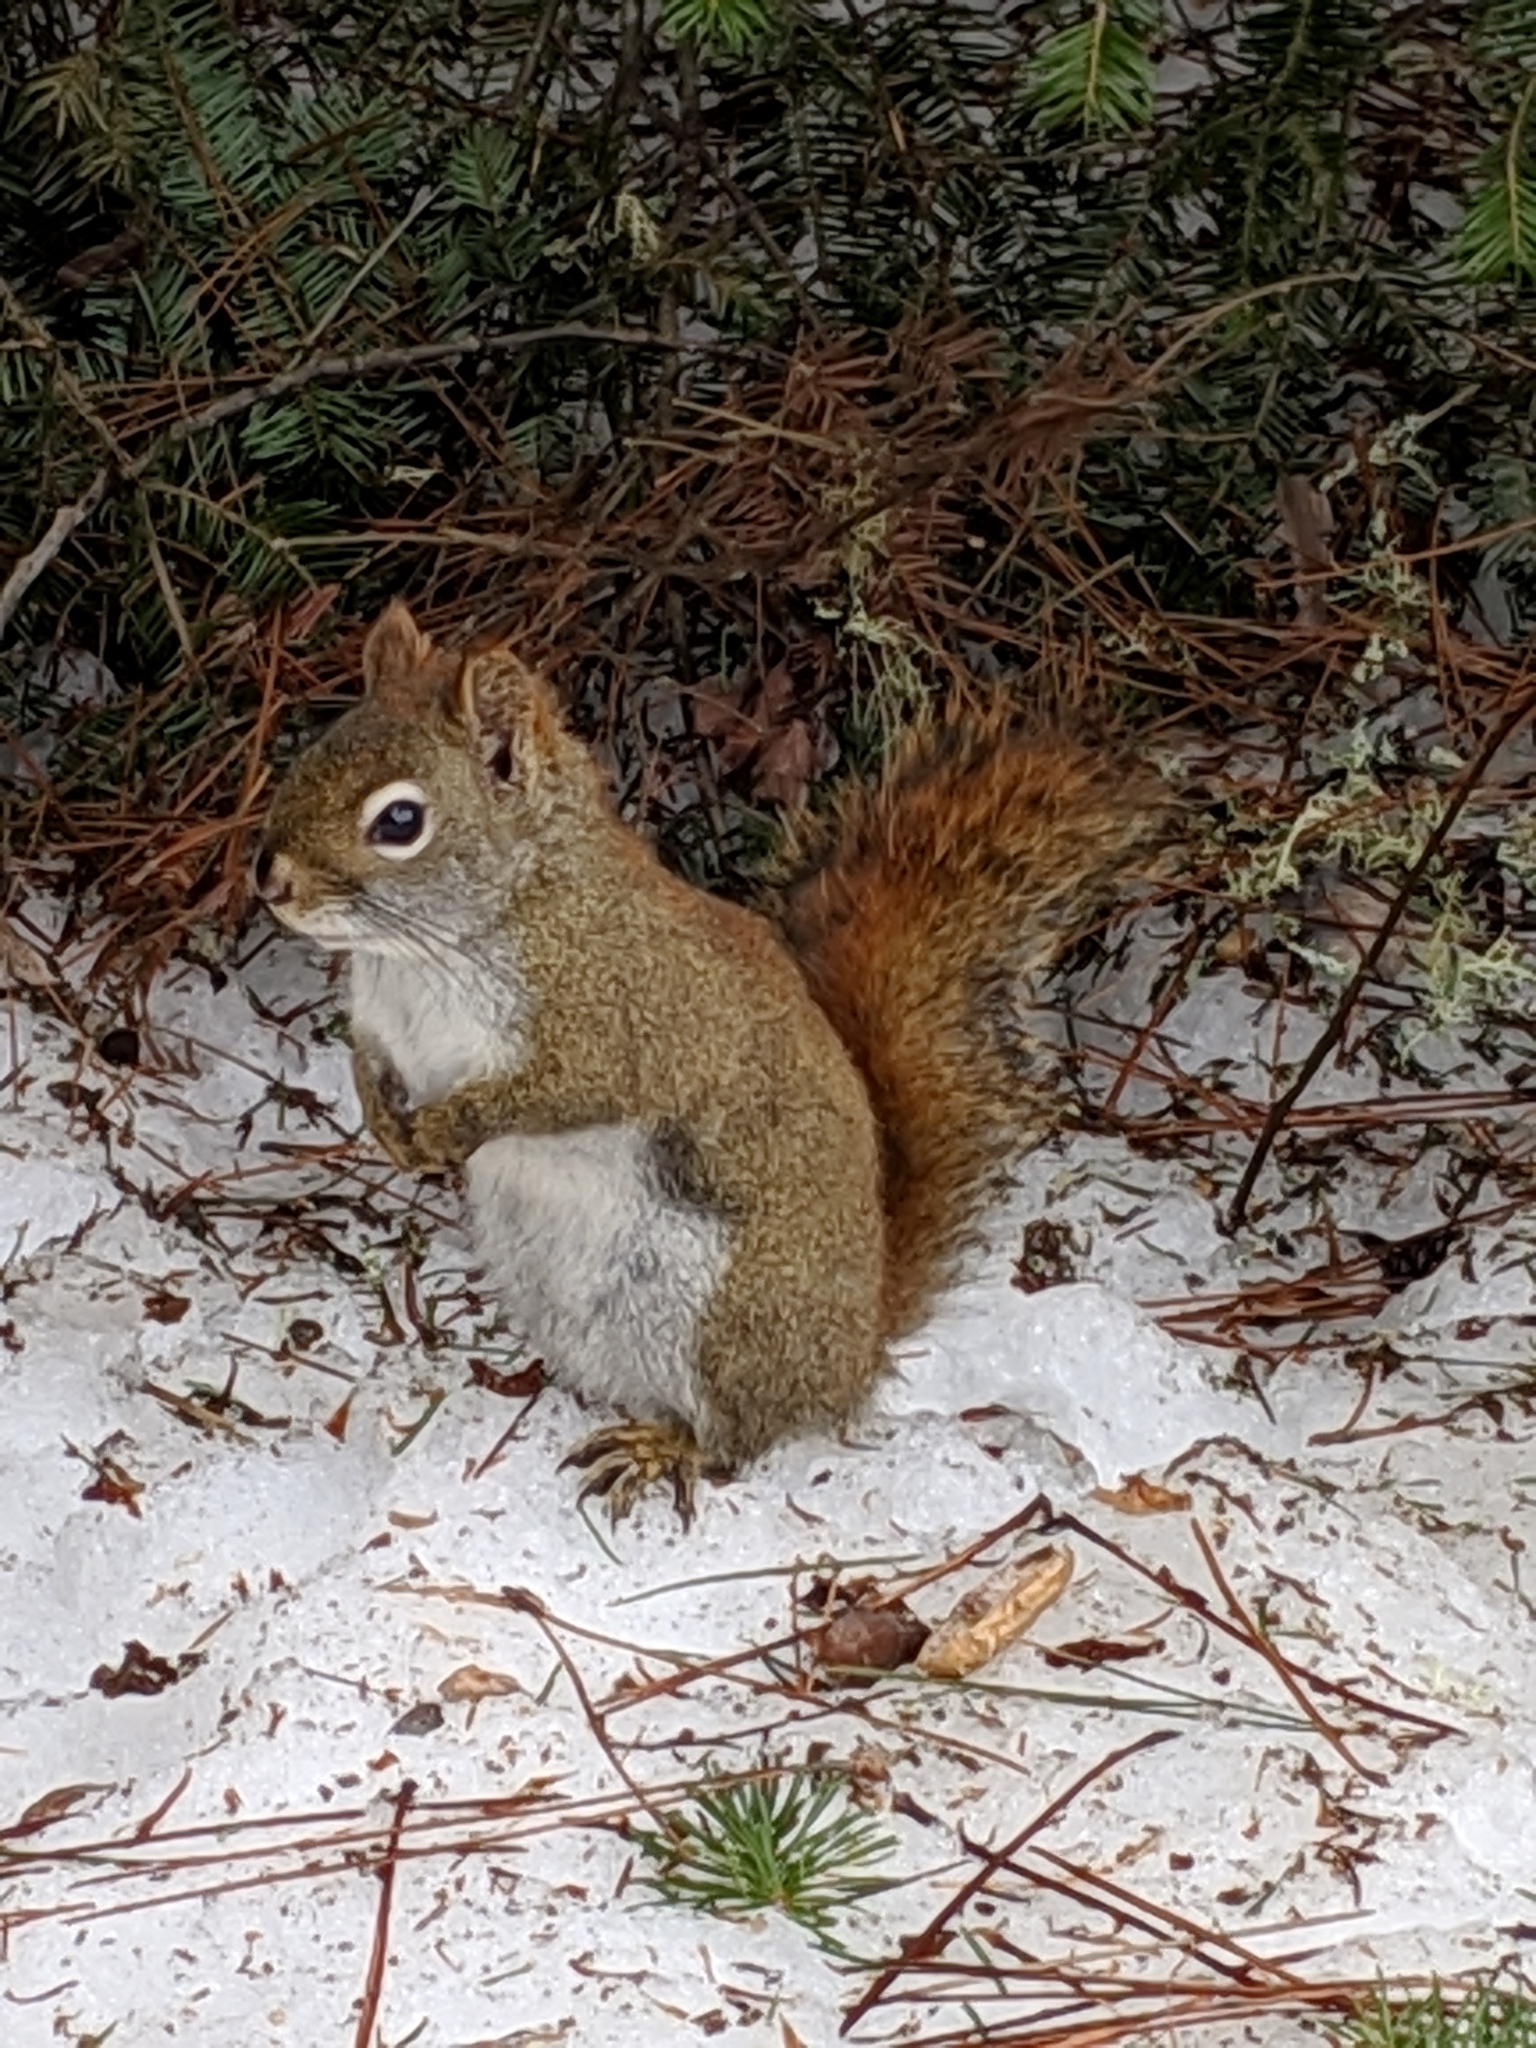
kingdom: Animalia
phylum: Chordata
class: Mammalia
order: Rodentia
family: Sciuridae
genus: Tamiasciurus
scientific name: Tamiasciurus hudsonicus
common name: Red squirrel
